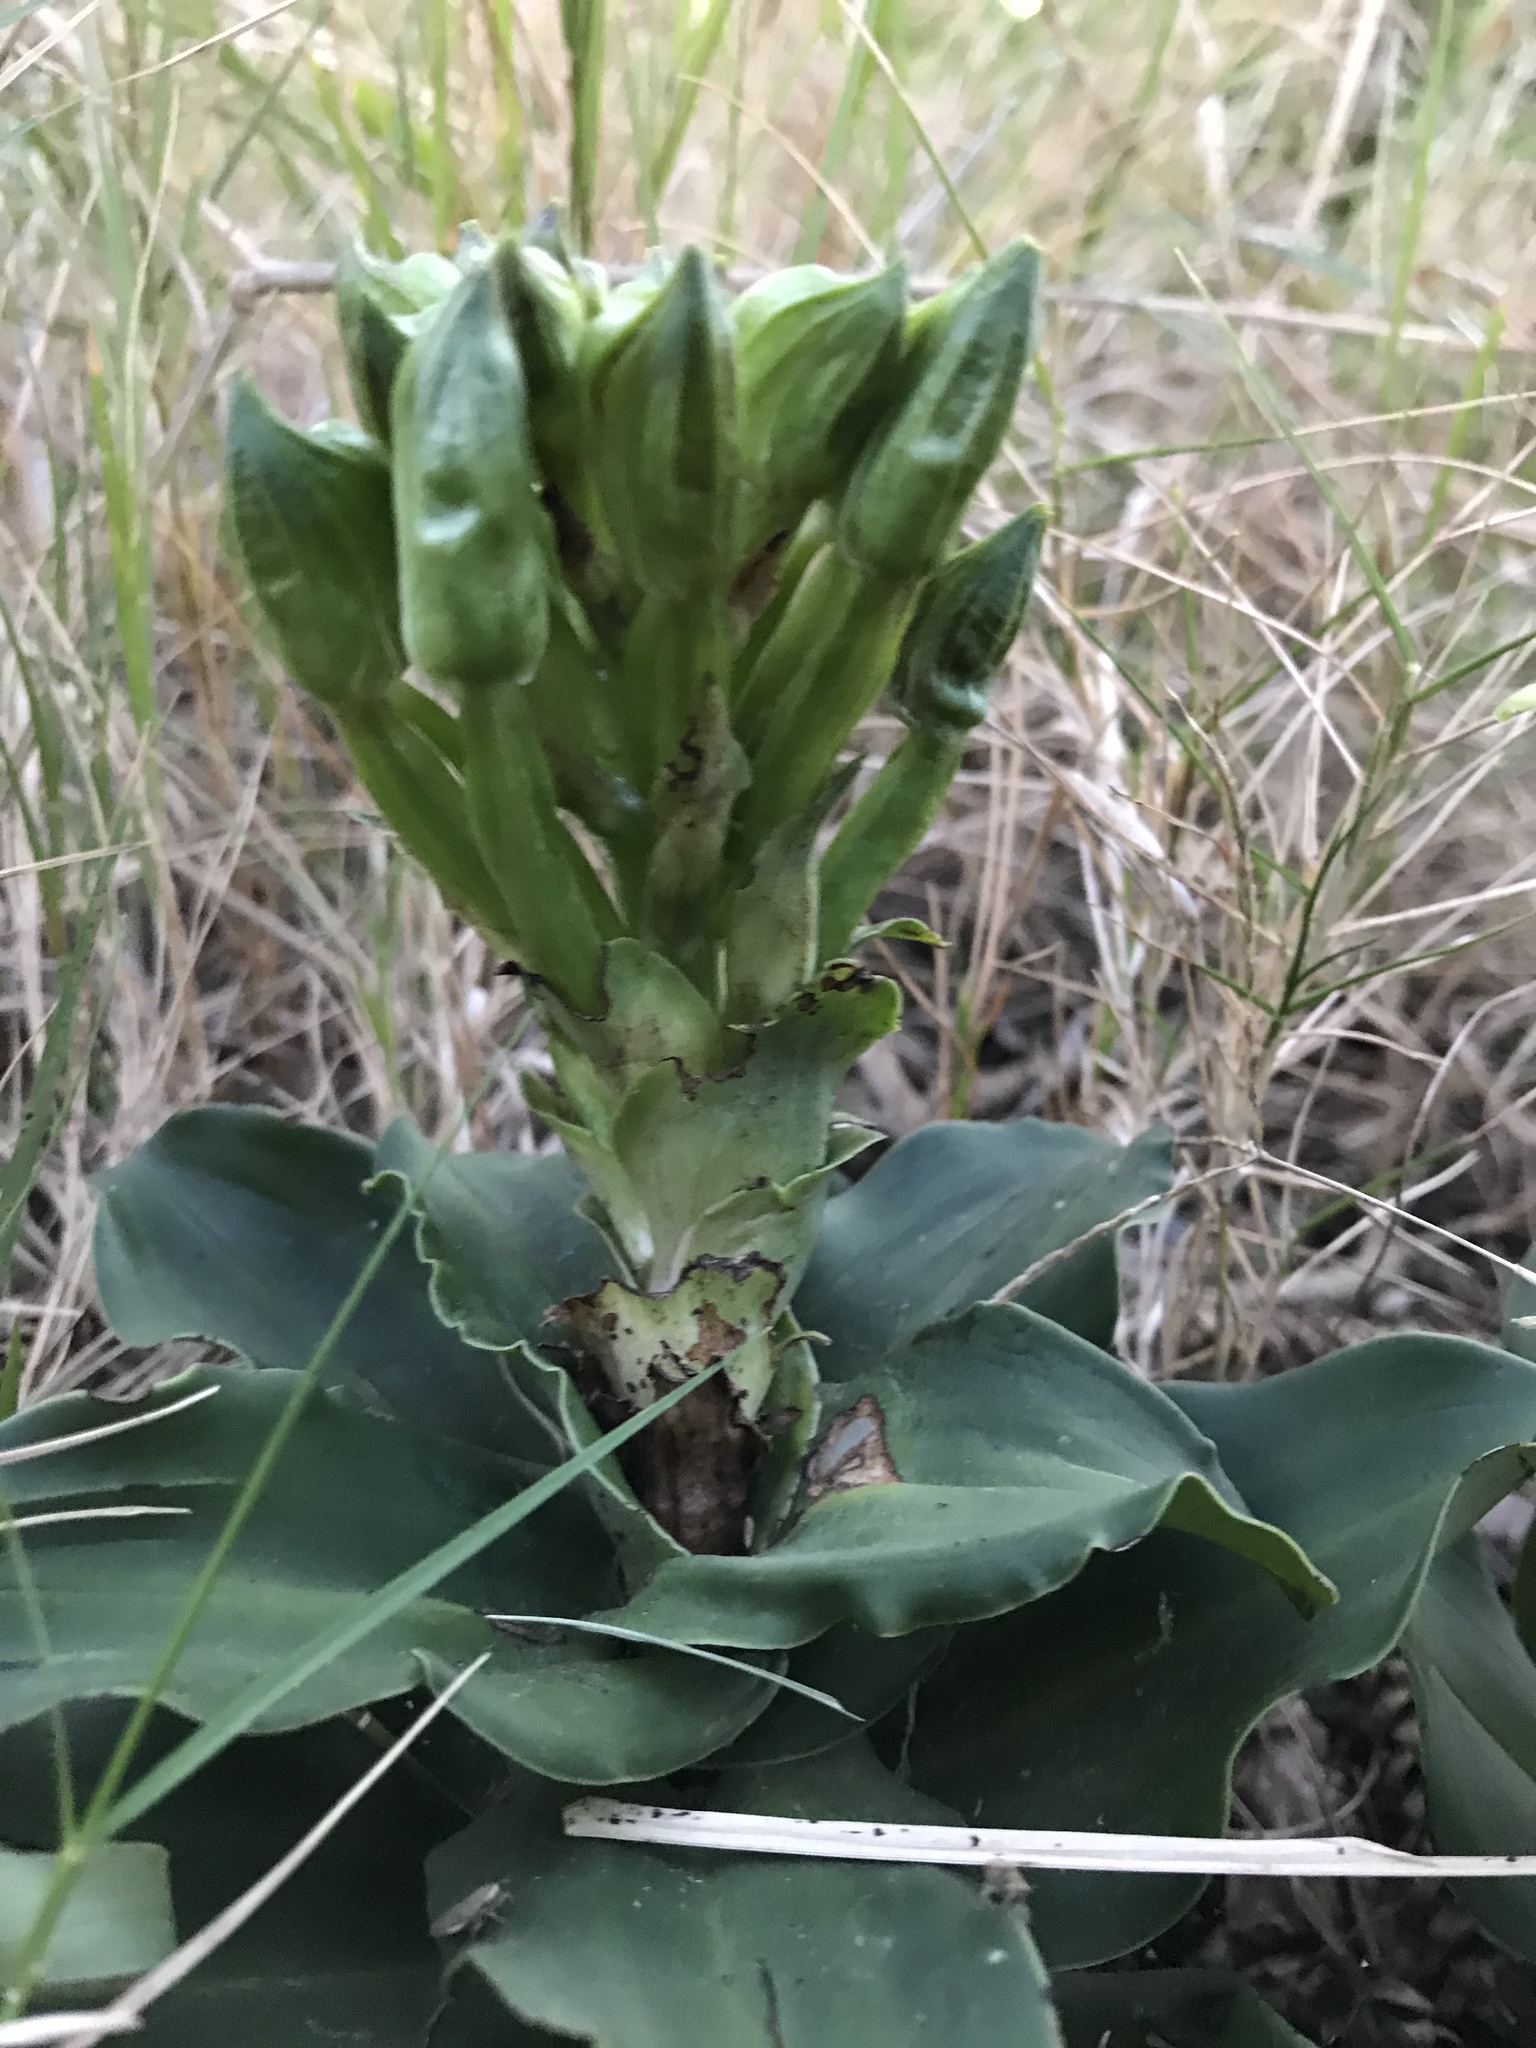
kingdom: Plantae
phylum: Tracheophyta
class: Liliopsida
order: Asparagales
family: Orchidaceae
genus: Bonatea
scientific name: Bonatea speciosa
